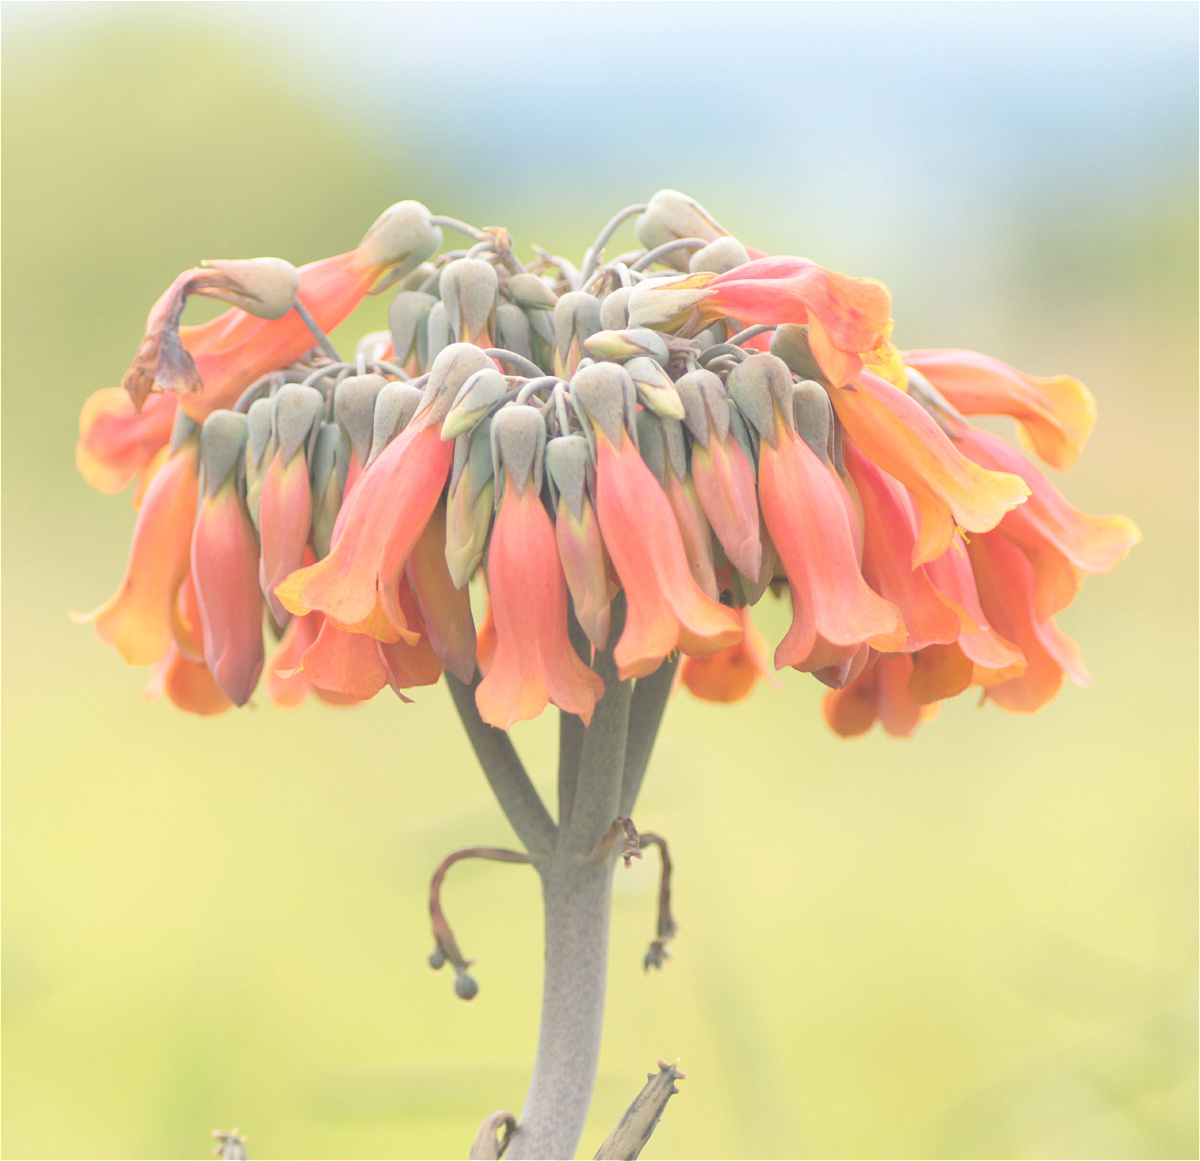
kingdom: Plantae
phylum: Tracheophyta
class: Magnoliopsida
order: Saxifragales
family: Crassulaceae
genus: Kalanchoe
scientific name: Kalanchoe delagoensis
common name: Chandelier plant
